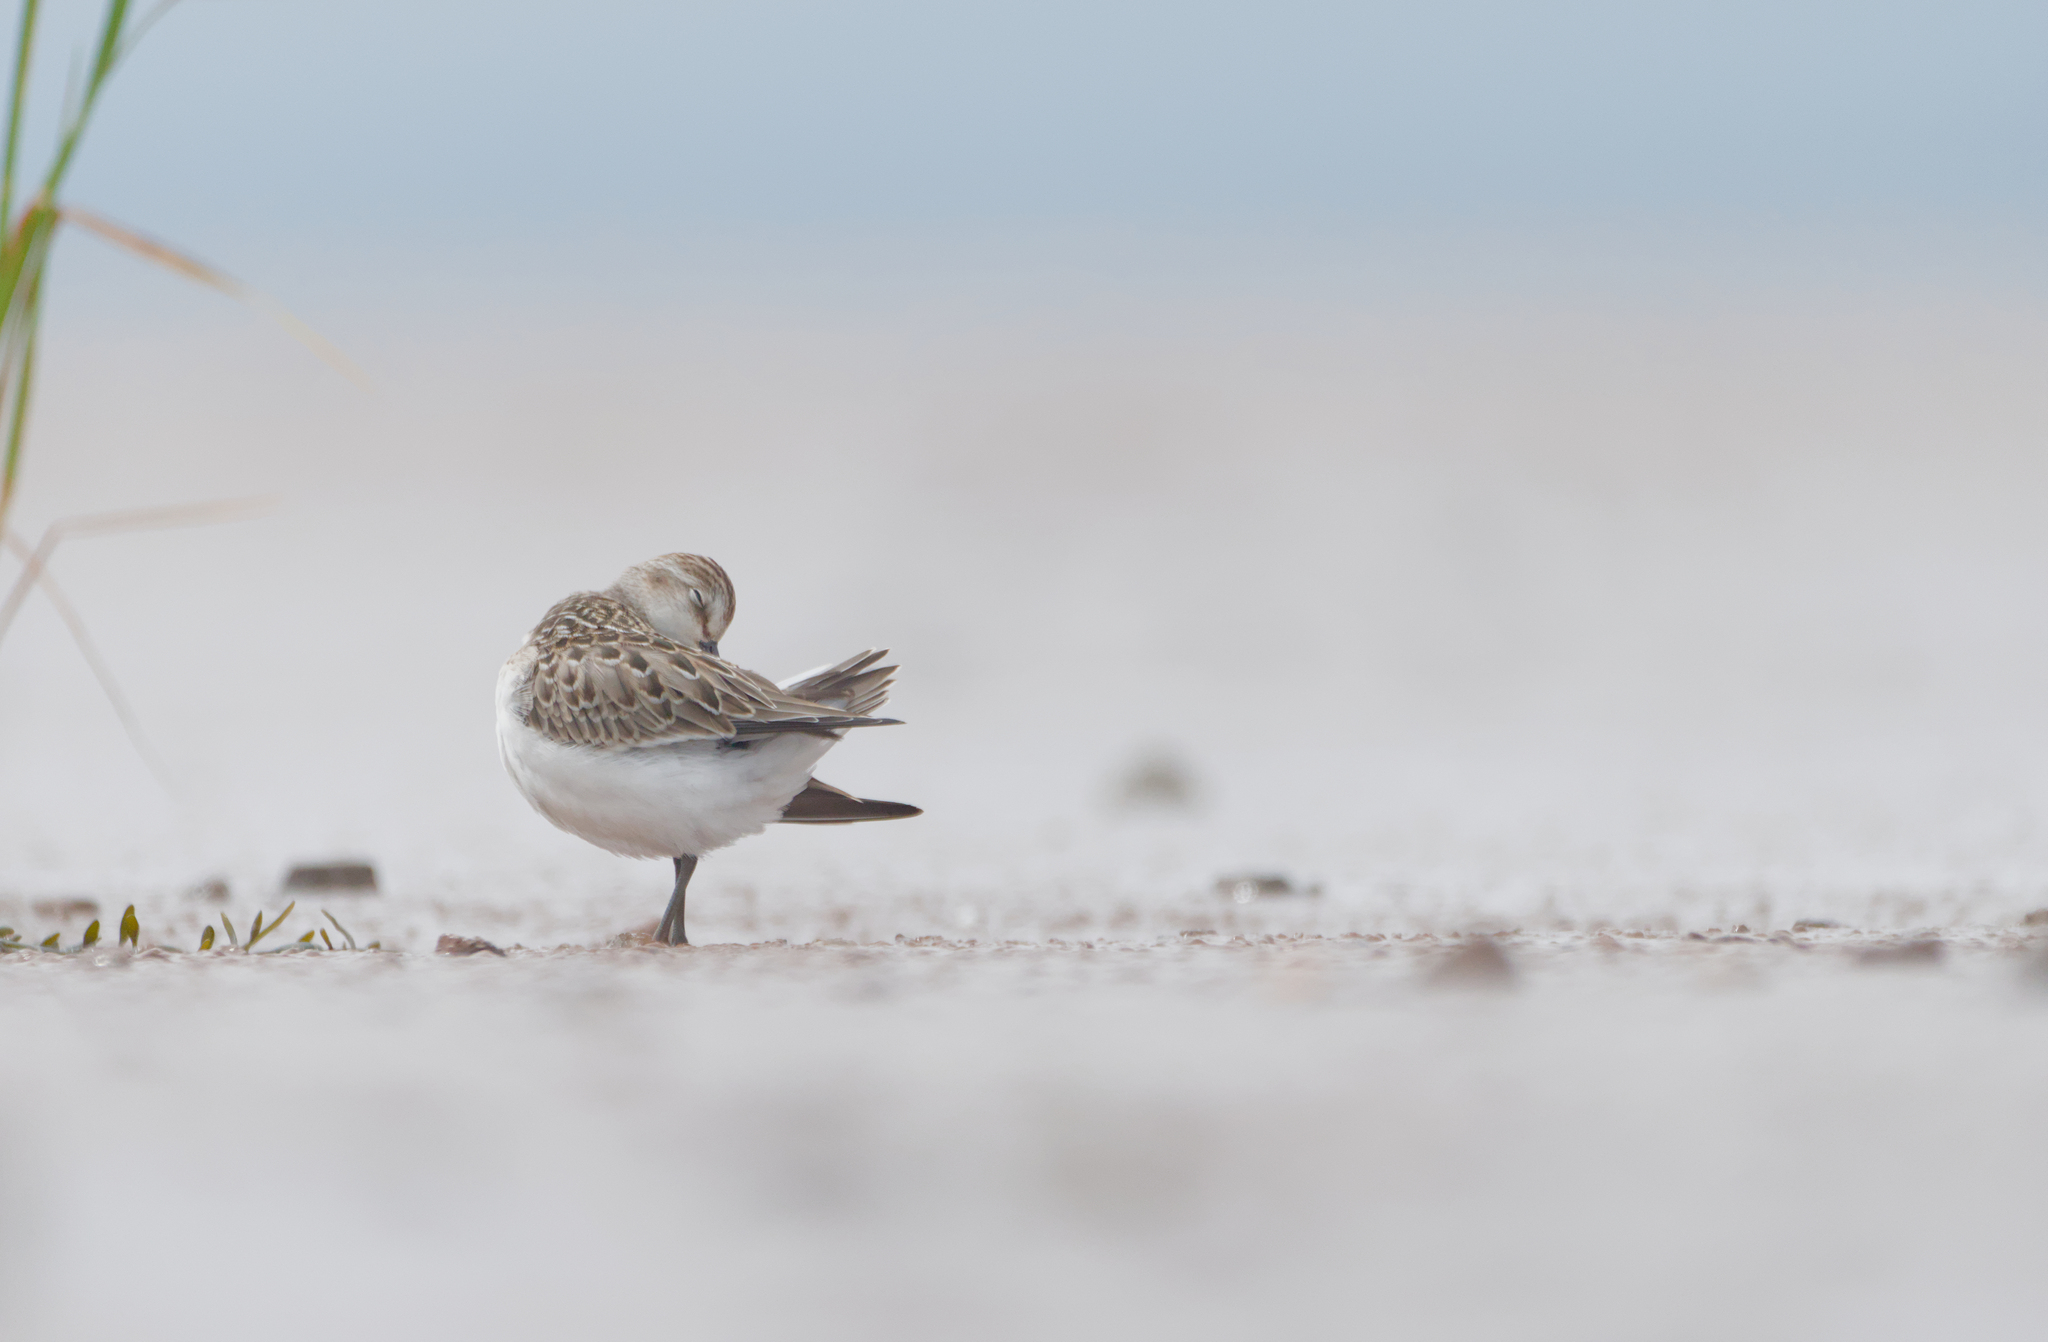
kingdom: Animalia
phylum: Chordata
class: Aves
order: Charadriiformes
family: Scolopacidae
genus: Calidris
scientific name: Calidris pusilla
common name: Semipalmated sandpiper
